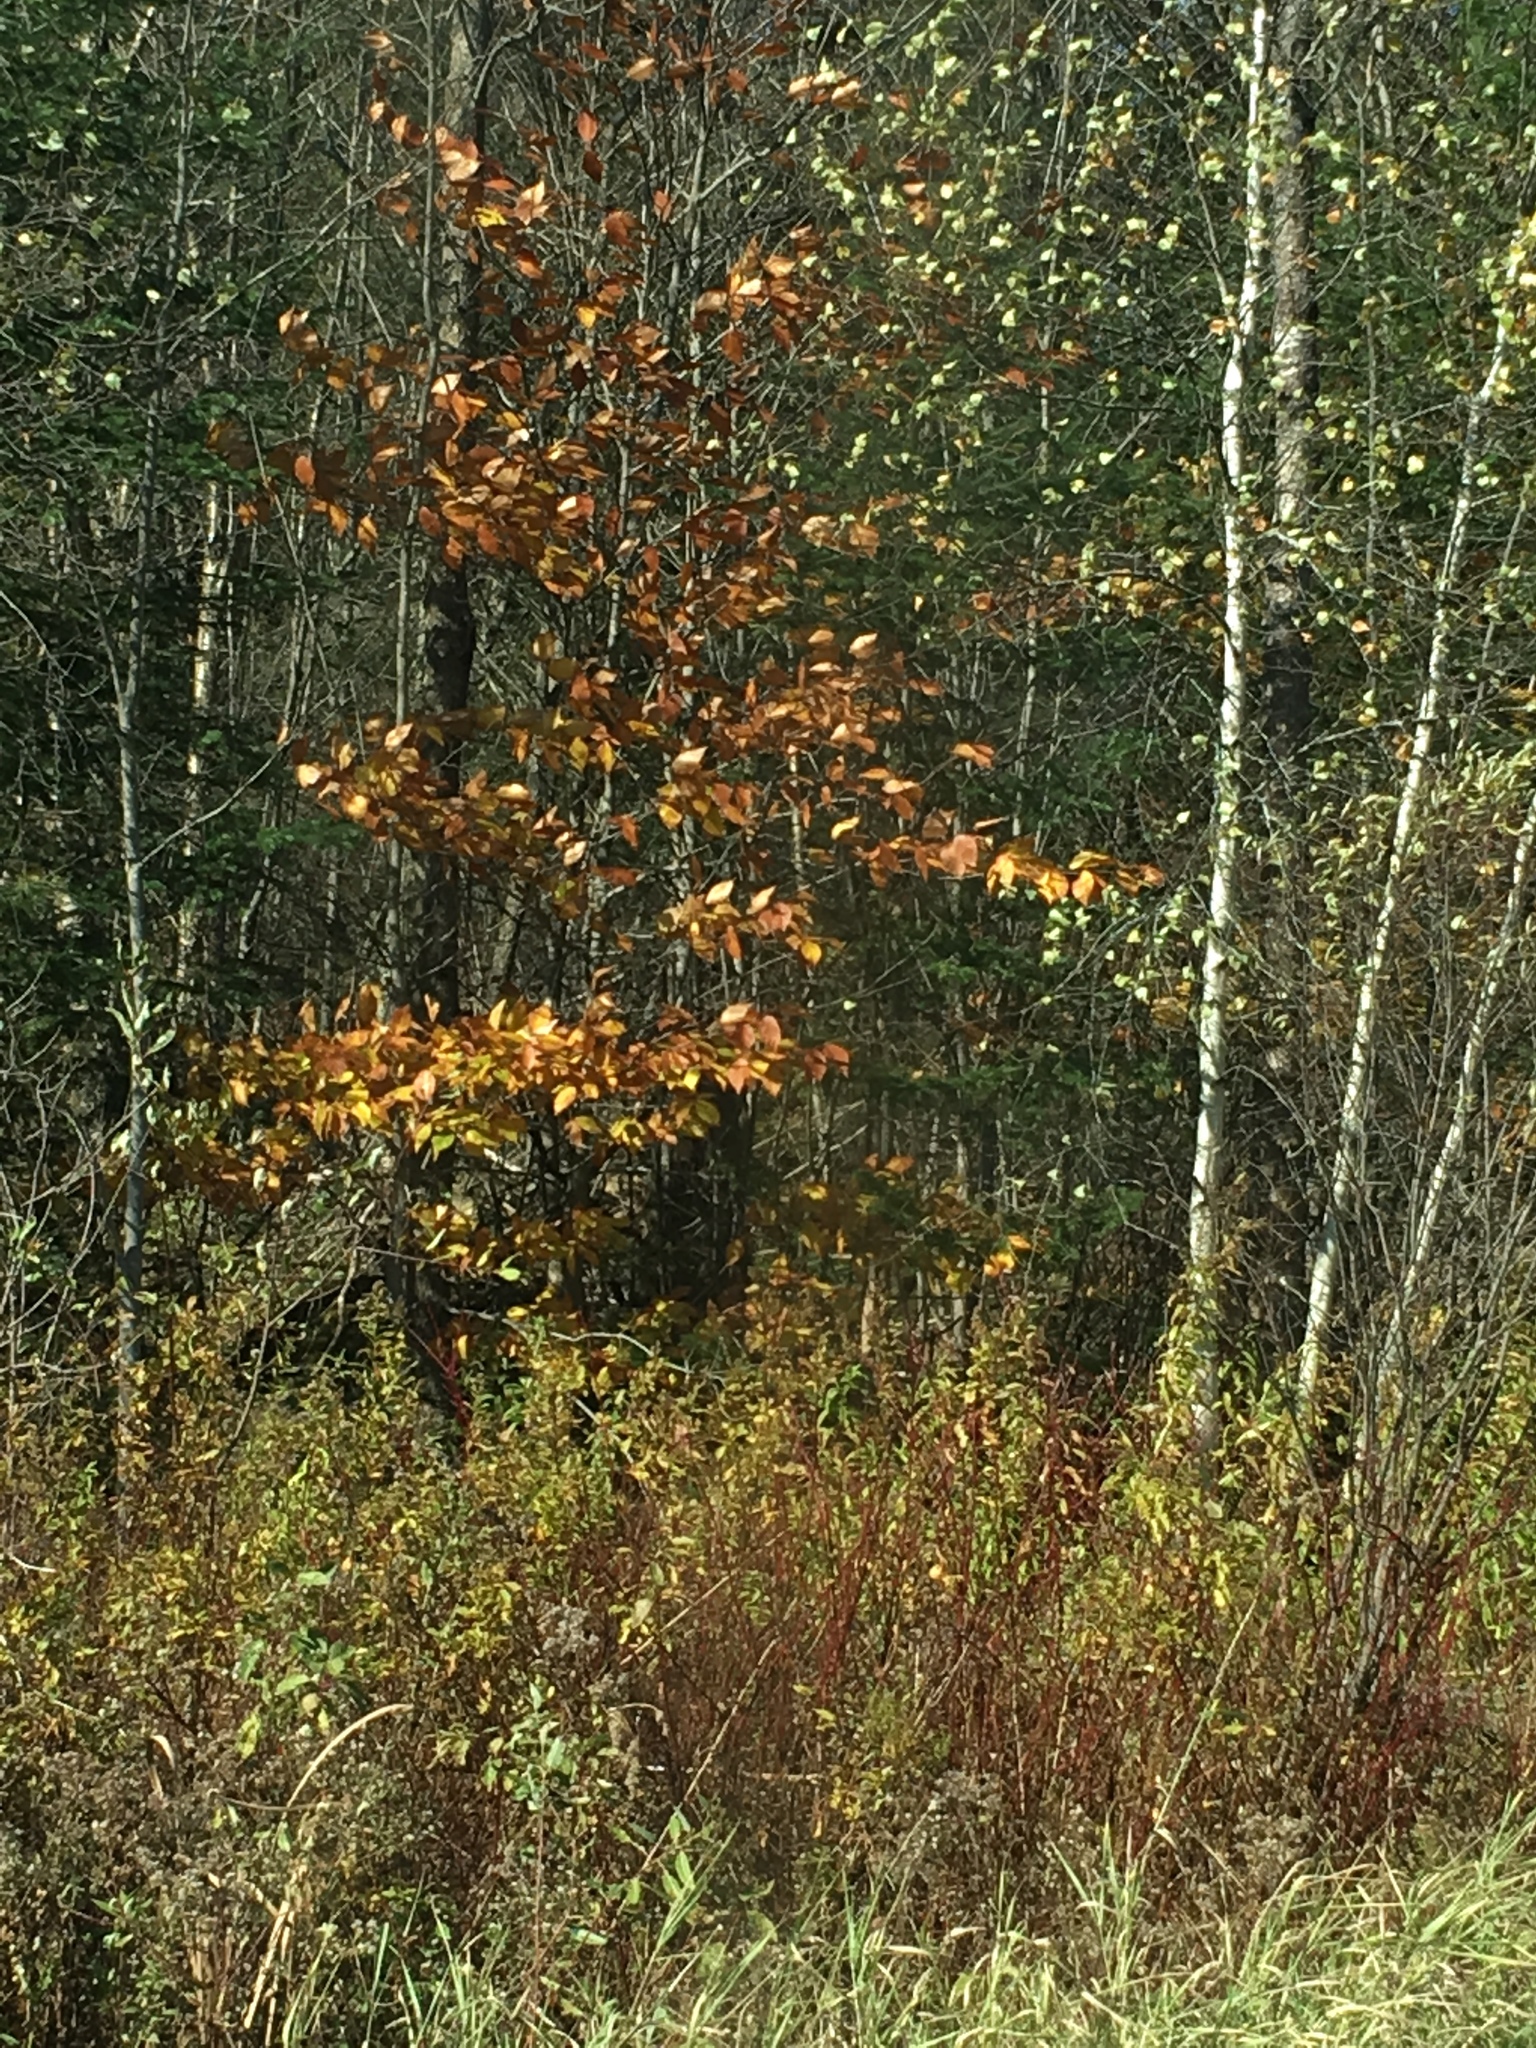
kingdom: Plantae
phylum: Tracheophyta
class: Magnoliopsida
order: Fagales
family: Fagaceae
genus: Fagus
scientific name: Fagus grandifolia
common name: American beech
